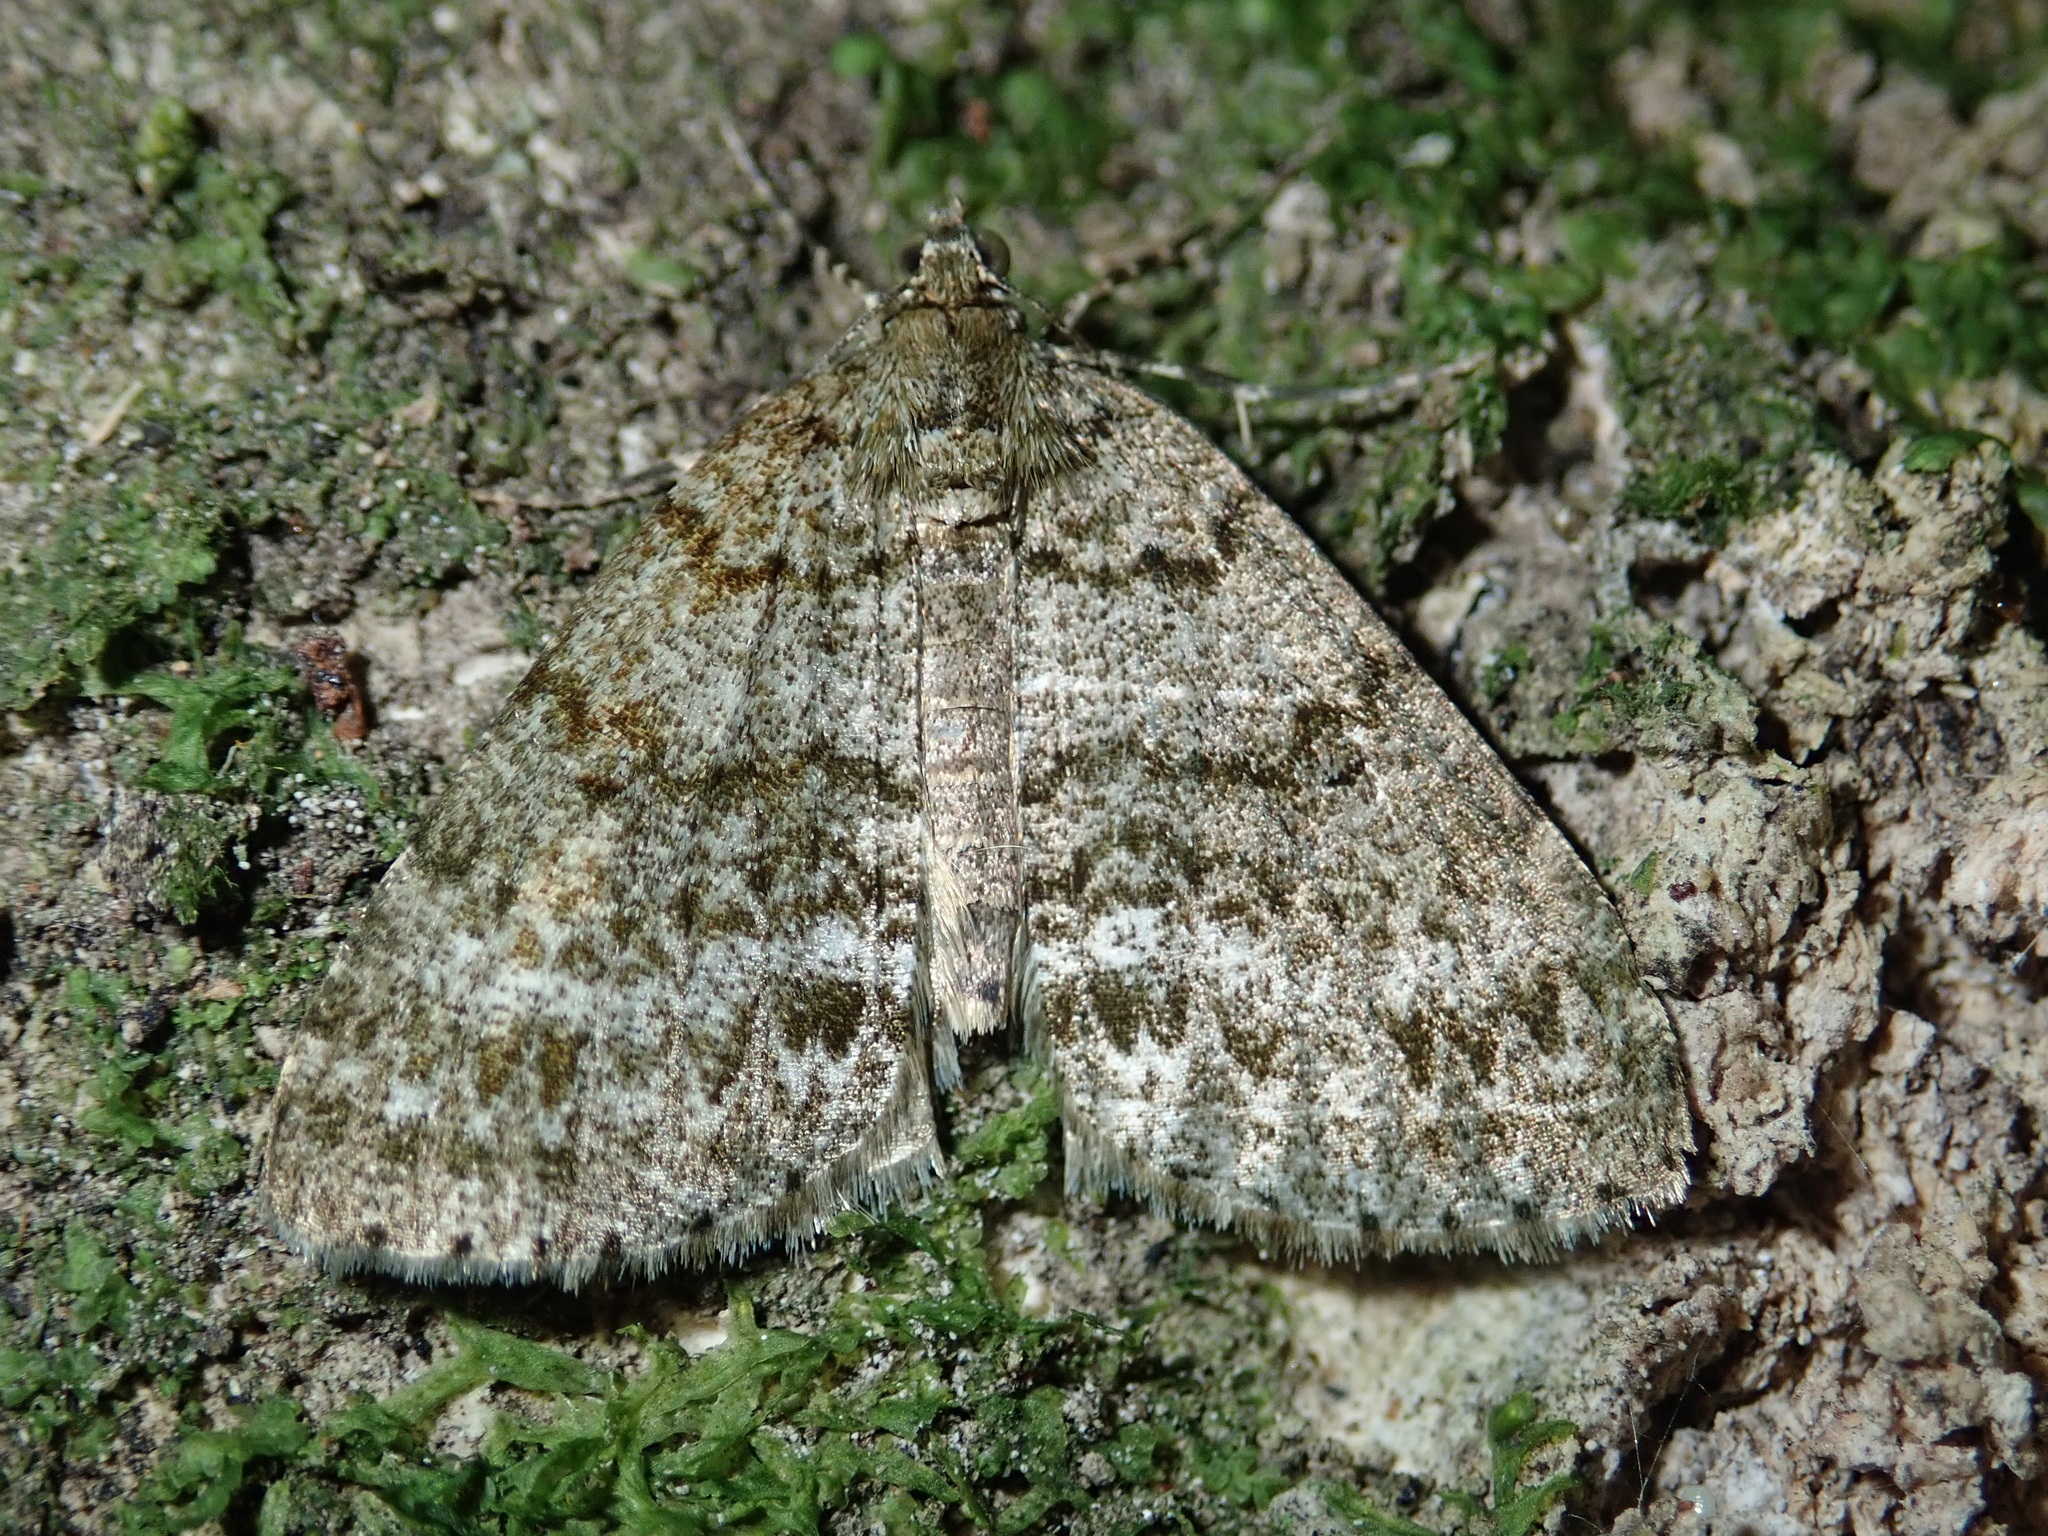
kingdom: Animalia
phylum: Arthropoda
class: Insecta
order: Lepidoptera
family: Geometridae
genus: Pseudocoremia
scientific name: Pseudocoremia indistincta
